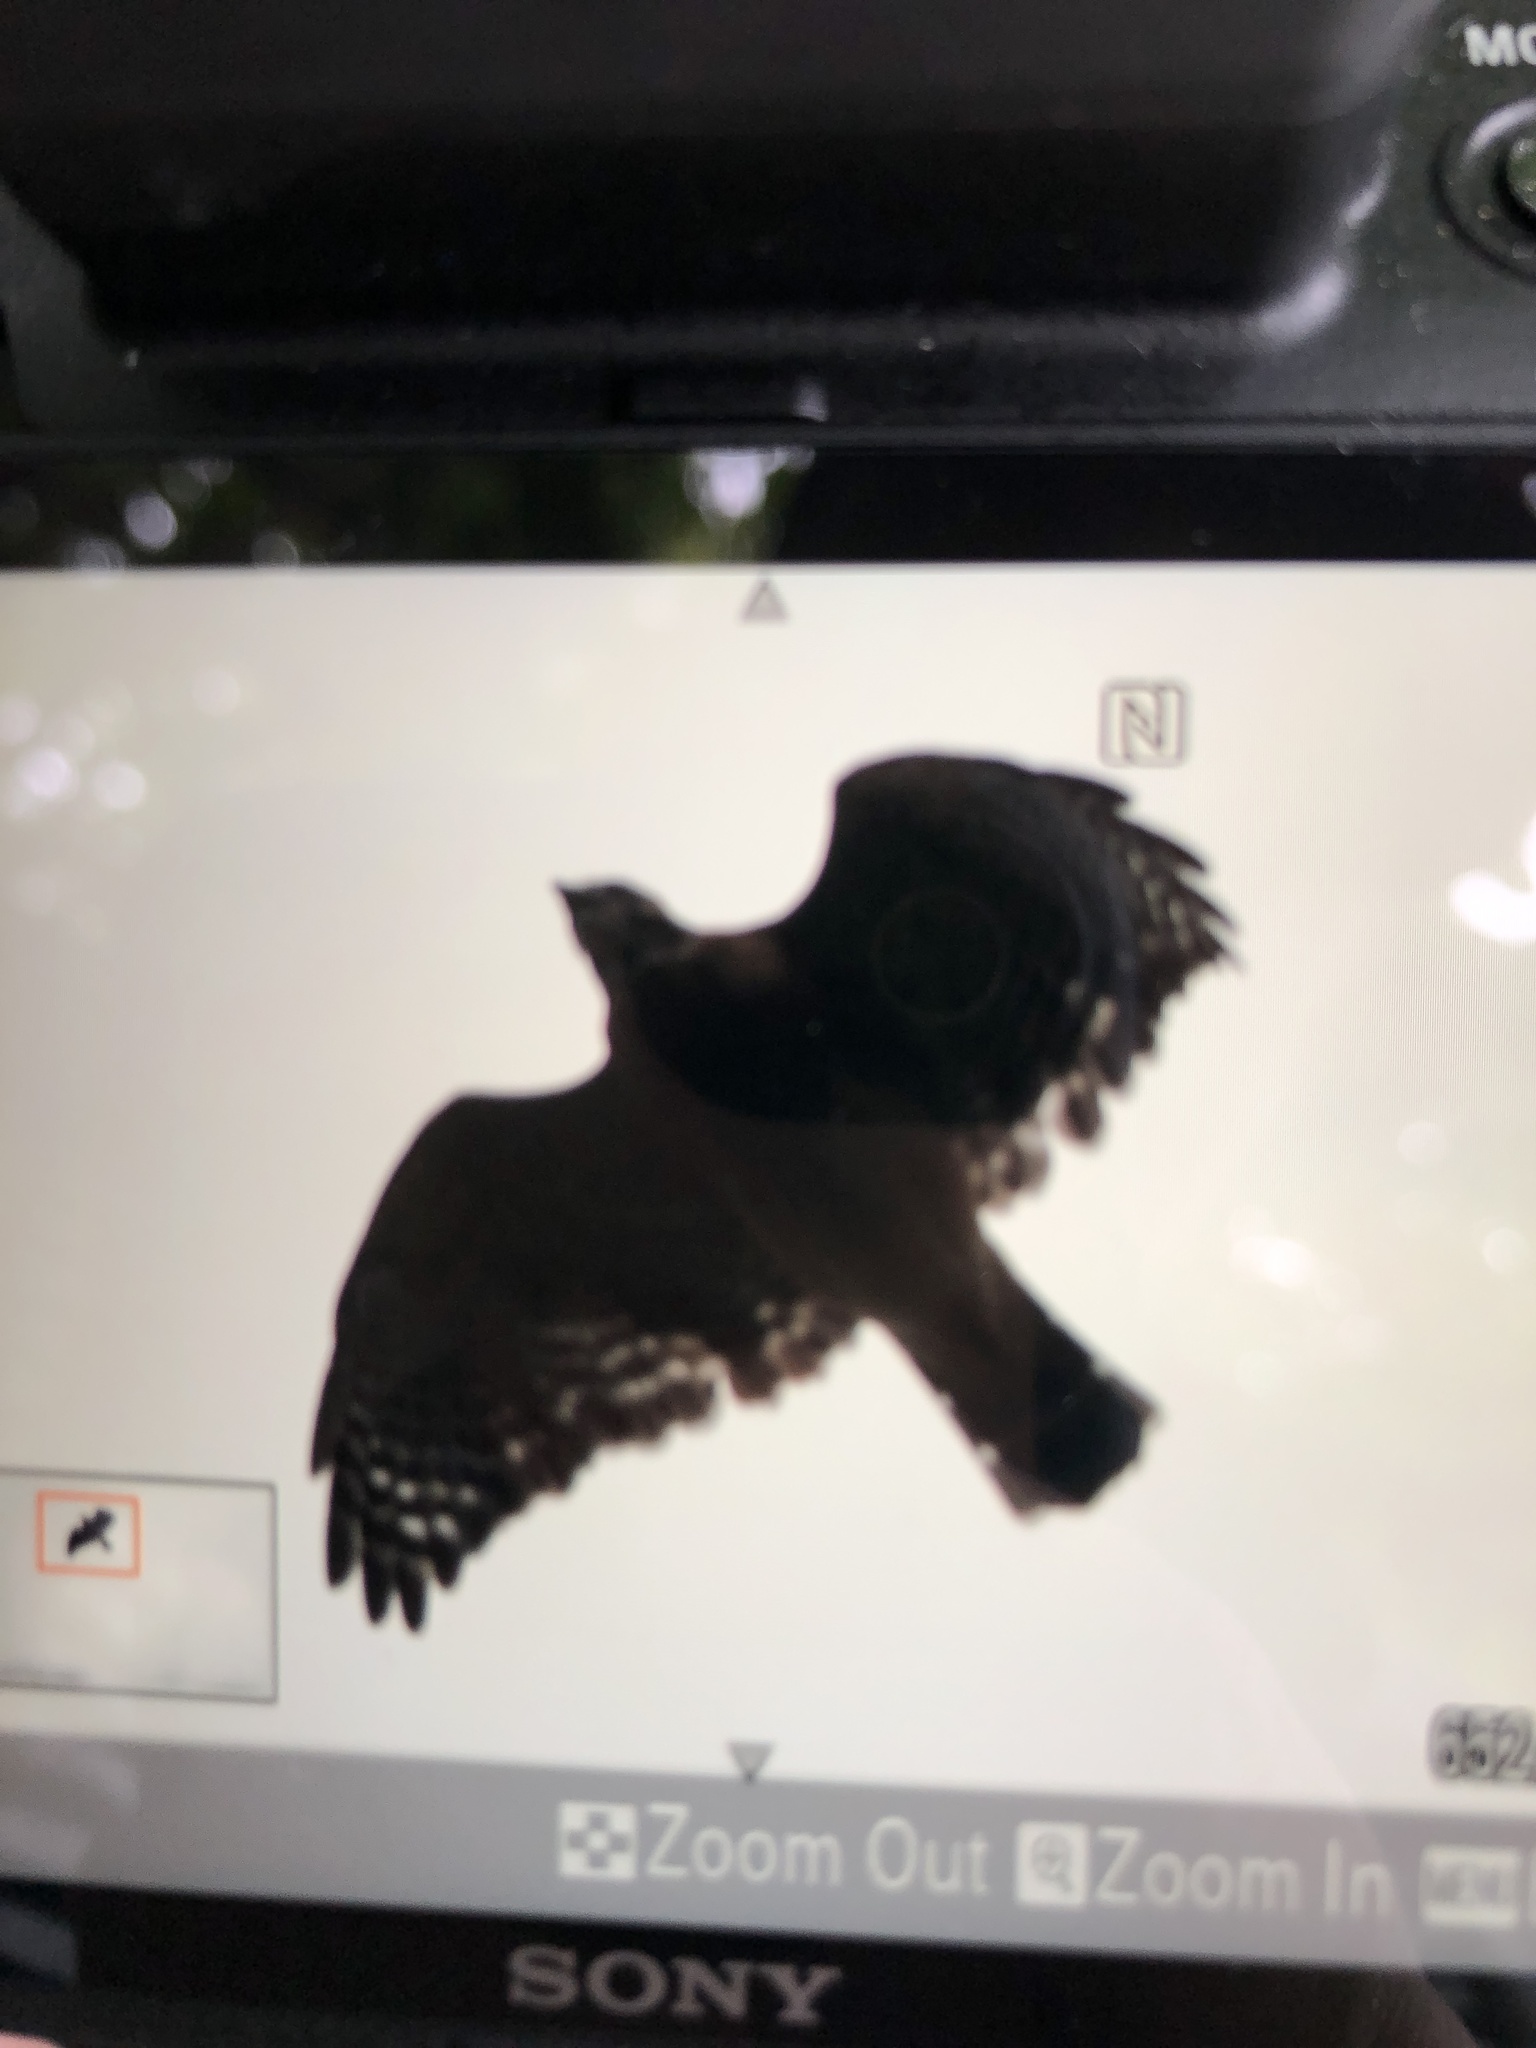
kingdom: Animalia
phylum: Chordata
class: Aves
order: Accipitriformes
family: Accipitridae
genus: Buteo
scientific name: Buteo lineatus
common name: Red-shouldered hawk
